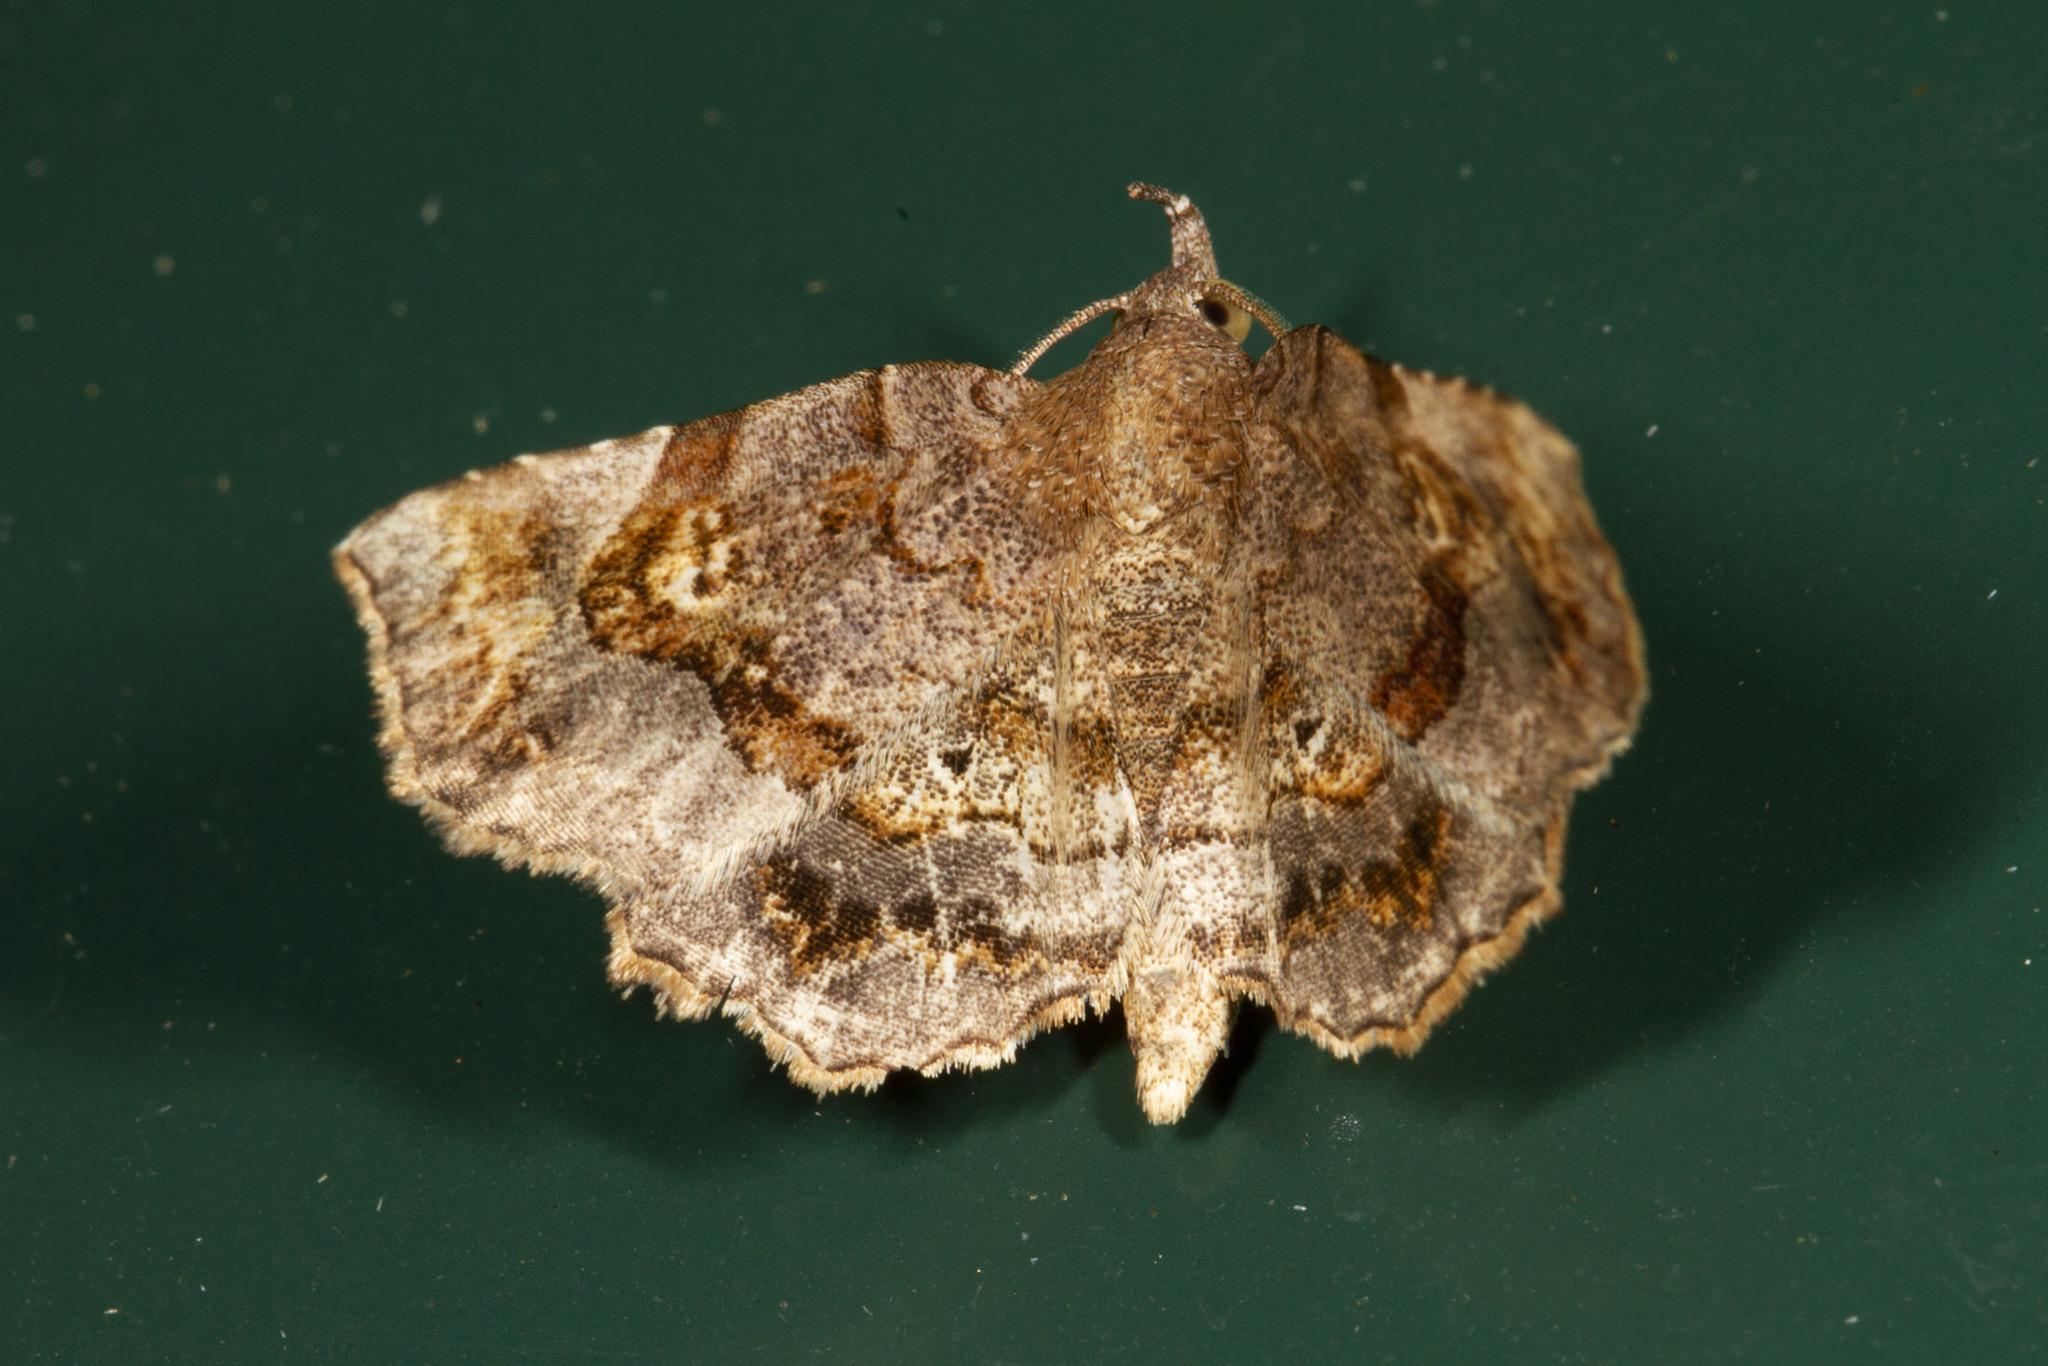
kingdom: Animalia
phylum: Arthropoda
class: Insecta
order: Lepidoptera
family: Erebidae
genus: Pangrapta
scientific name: Pangrapta decoralis
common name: Decorated owlet
